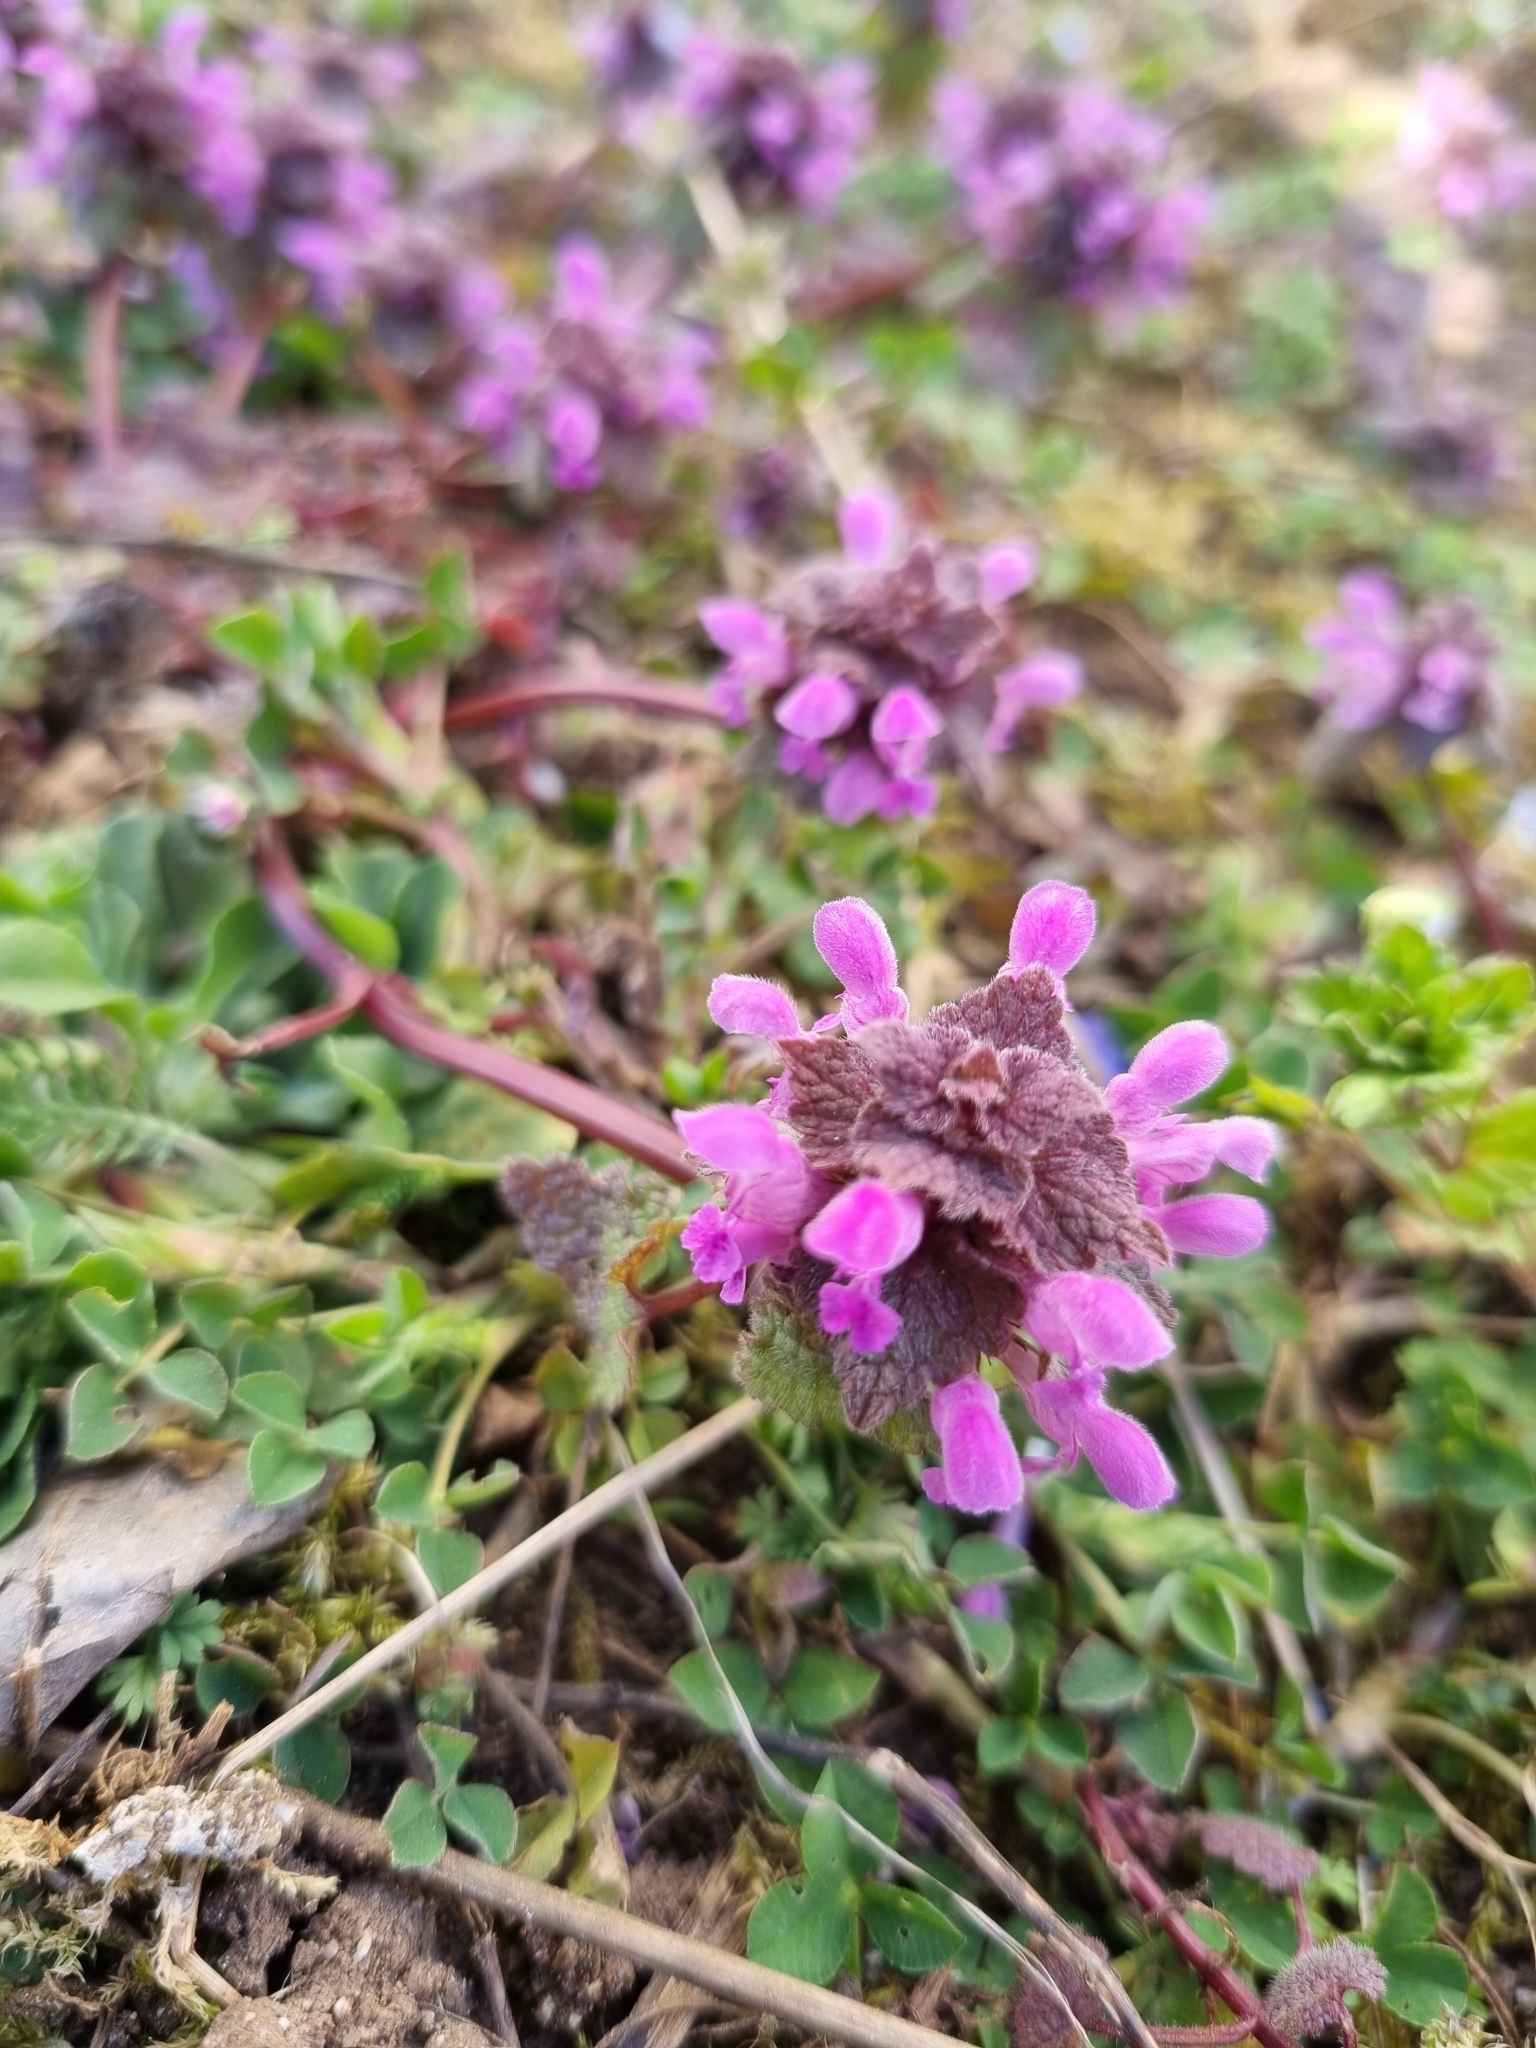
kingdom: Plantae
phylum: Tracheophyta
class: Magnoliopsida
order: Lamiales
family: Lamiaceae
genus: Lamium
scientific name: Lamium purpureum
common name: Red dead-nettle
